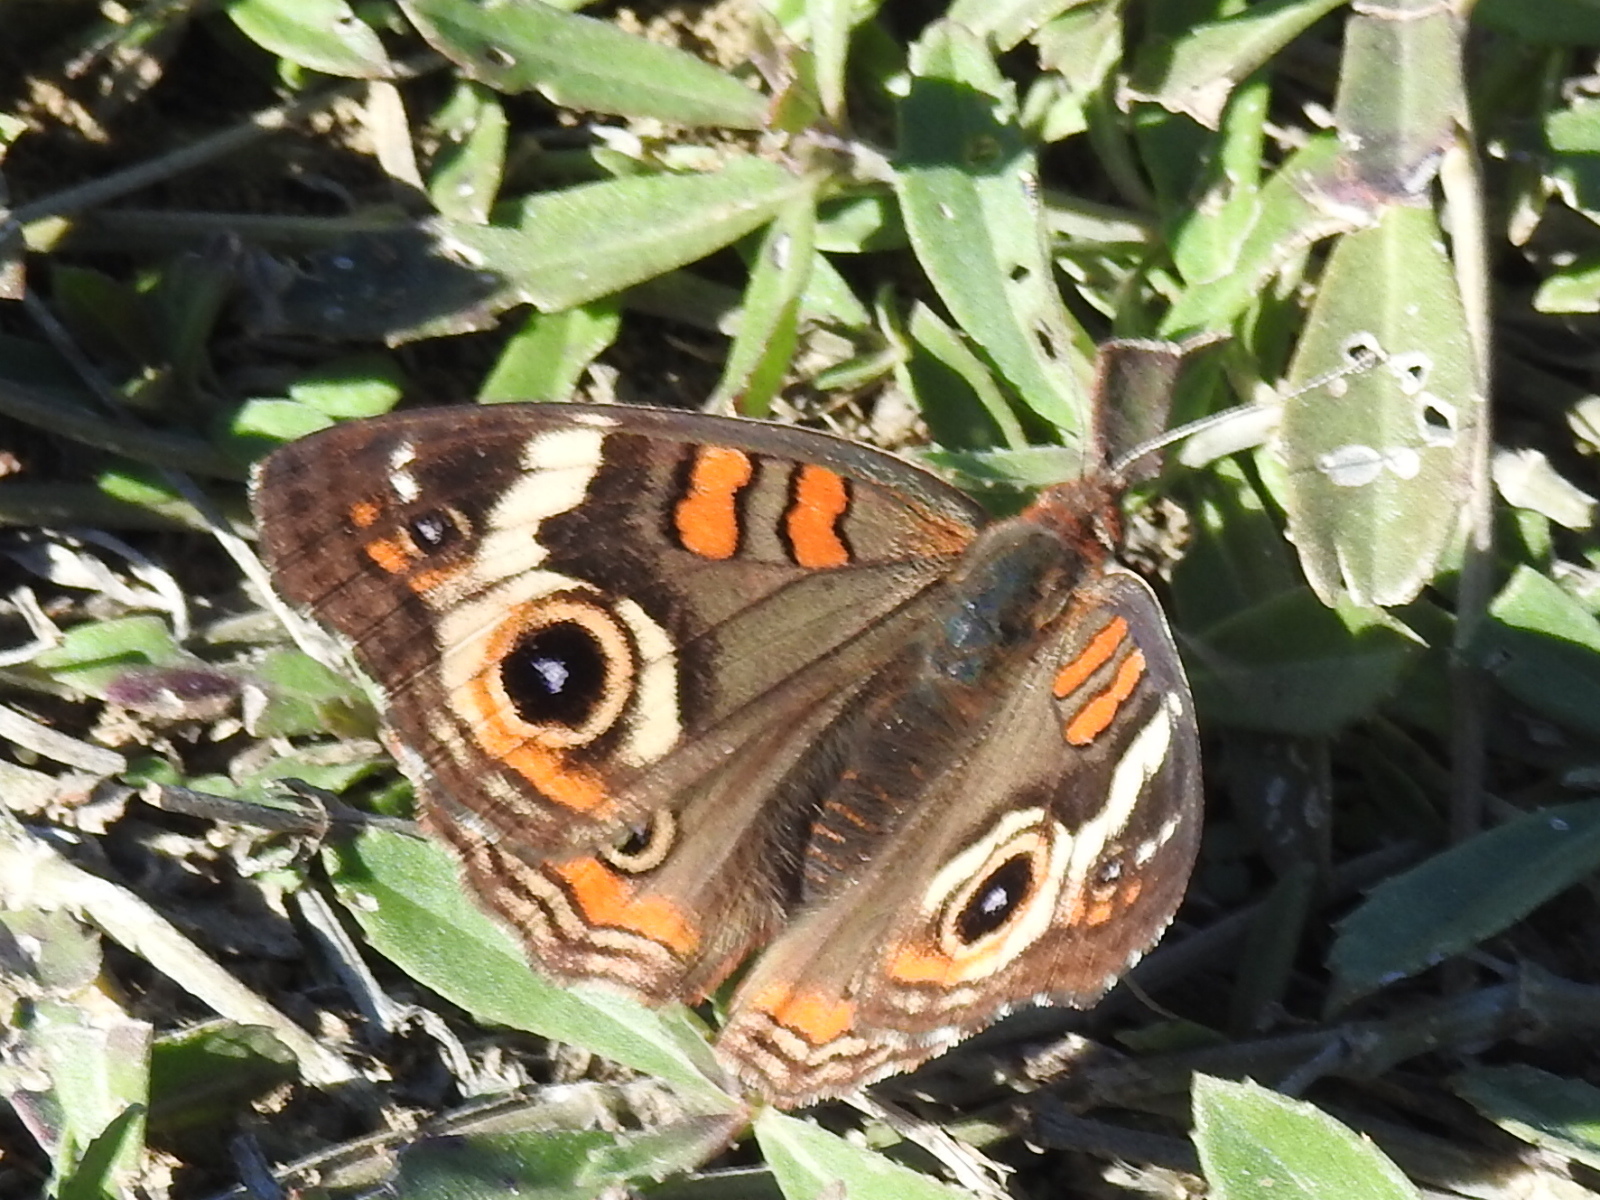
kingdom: Animalia
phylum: Arthropoda
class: Insecta
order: Lepidoptera
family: Nymphalidae
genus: Junonia
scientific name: Junonia coenia
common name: Common buckeye
